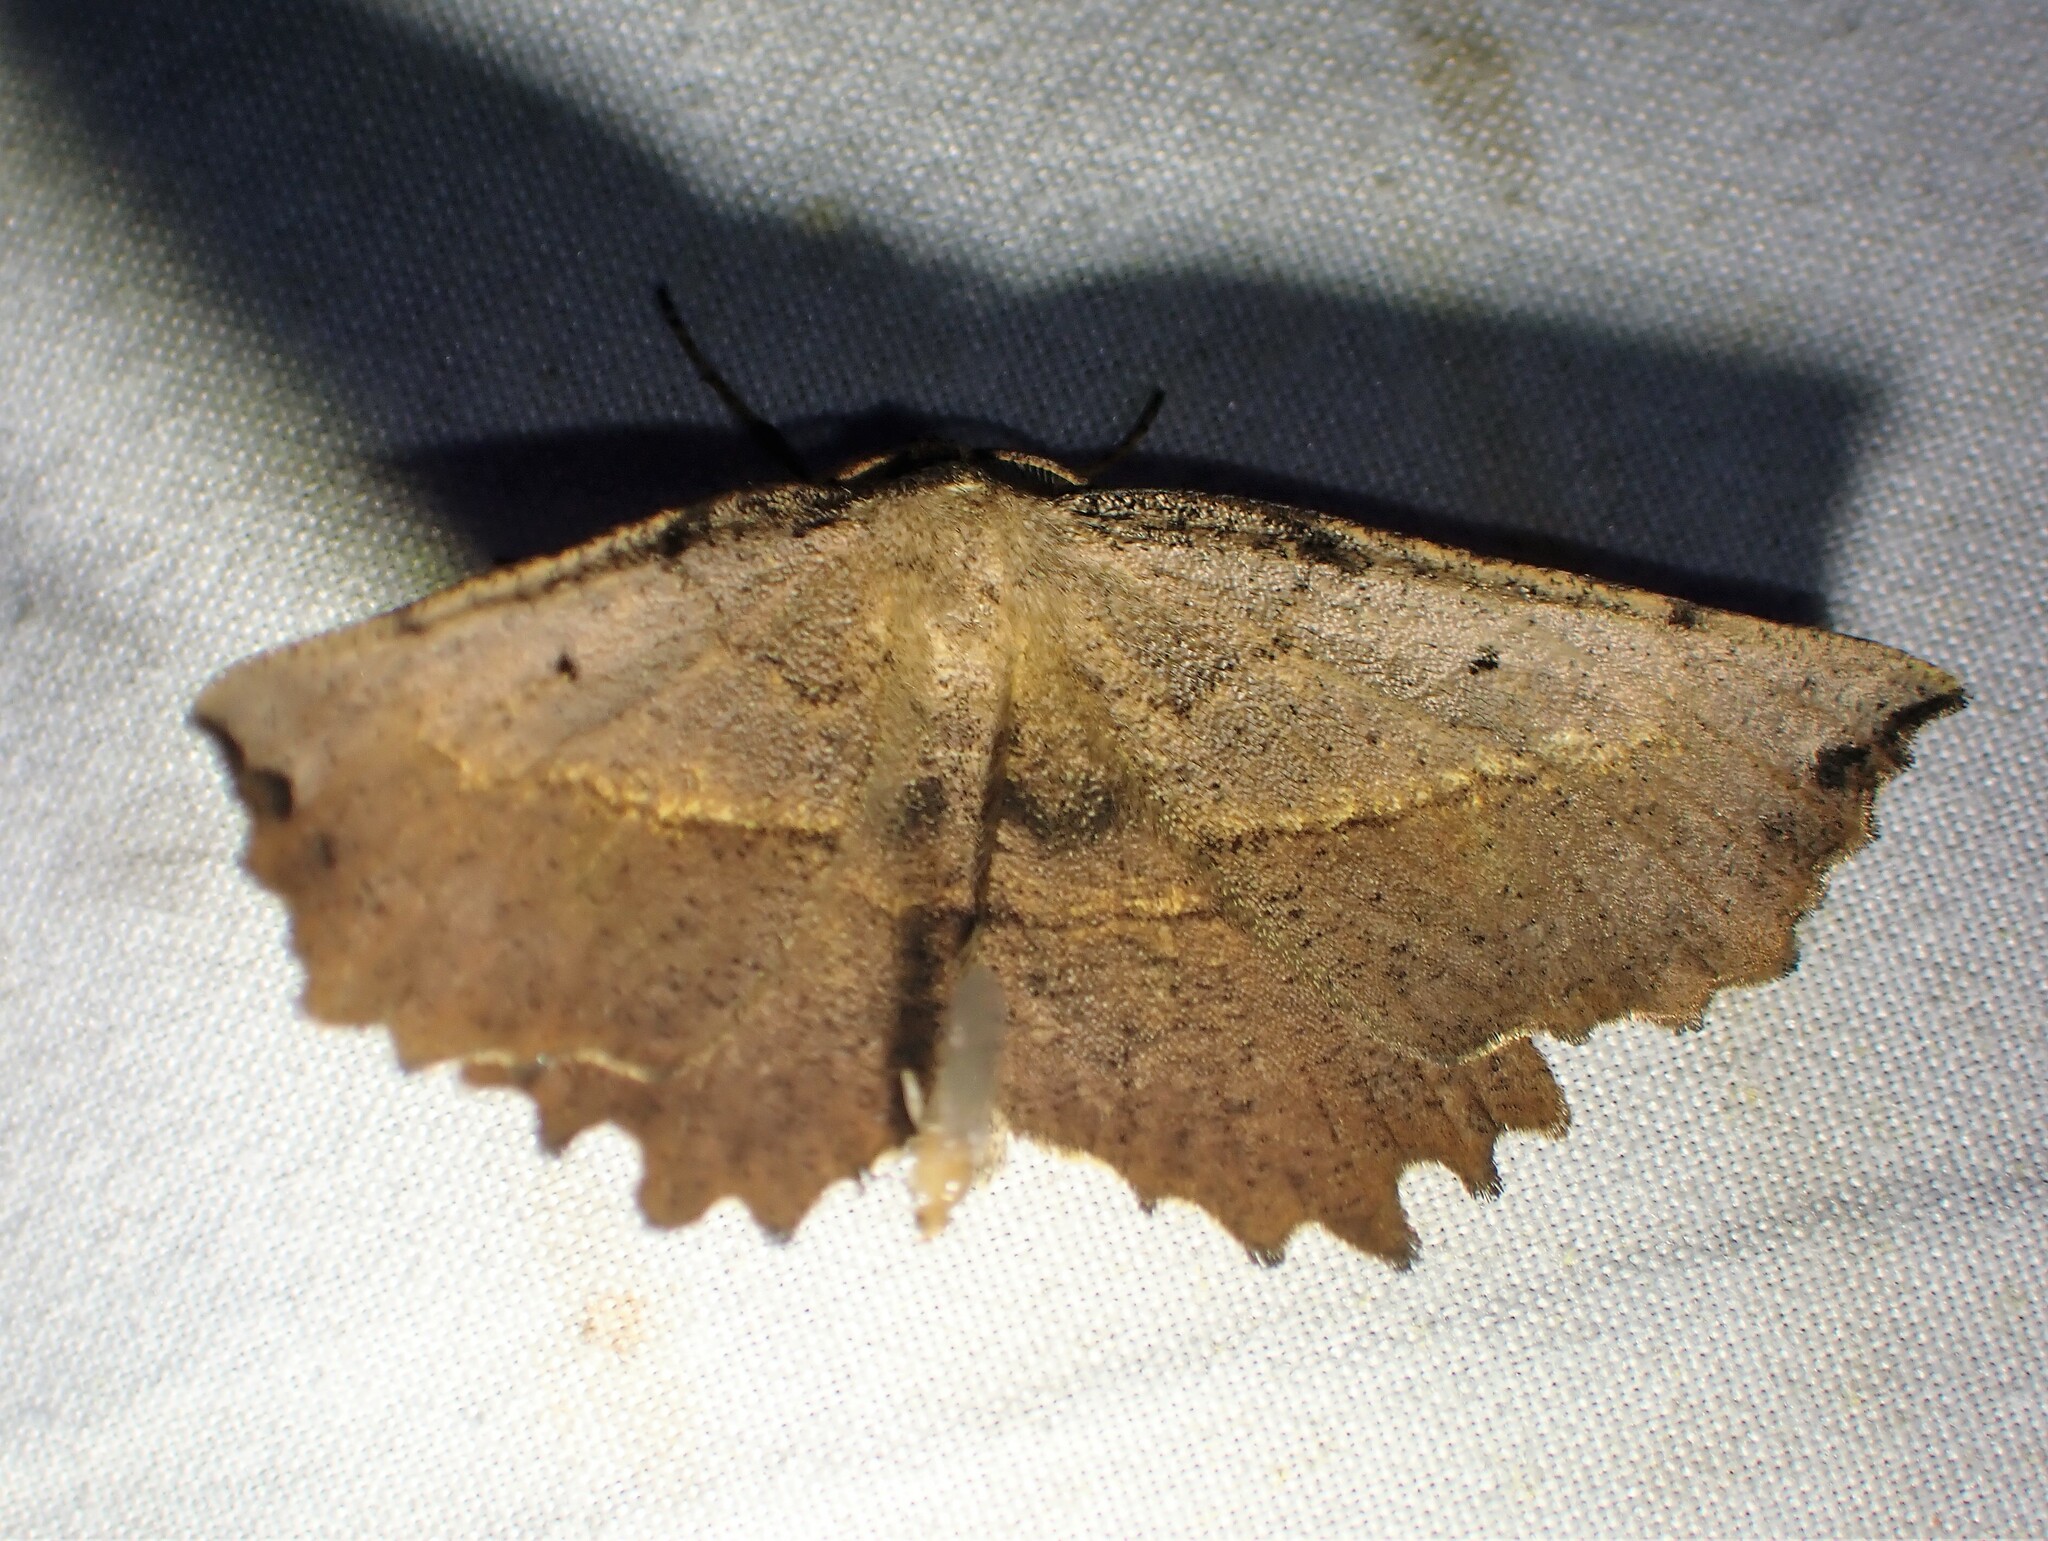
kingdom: Animalia
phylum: Arthropoda
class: Insecta
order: Lepidoptera
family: Geometridae
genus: Euchlaena
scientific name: Euchlaena muzaria
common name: Muzaria euchlaena
